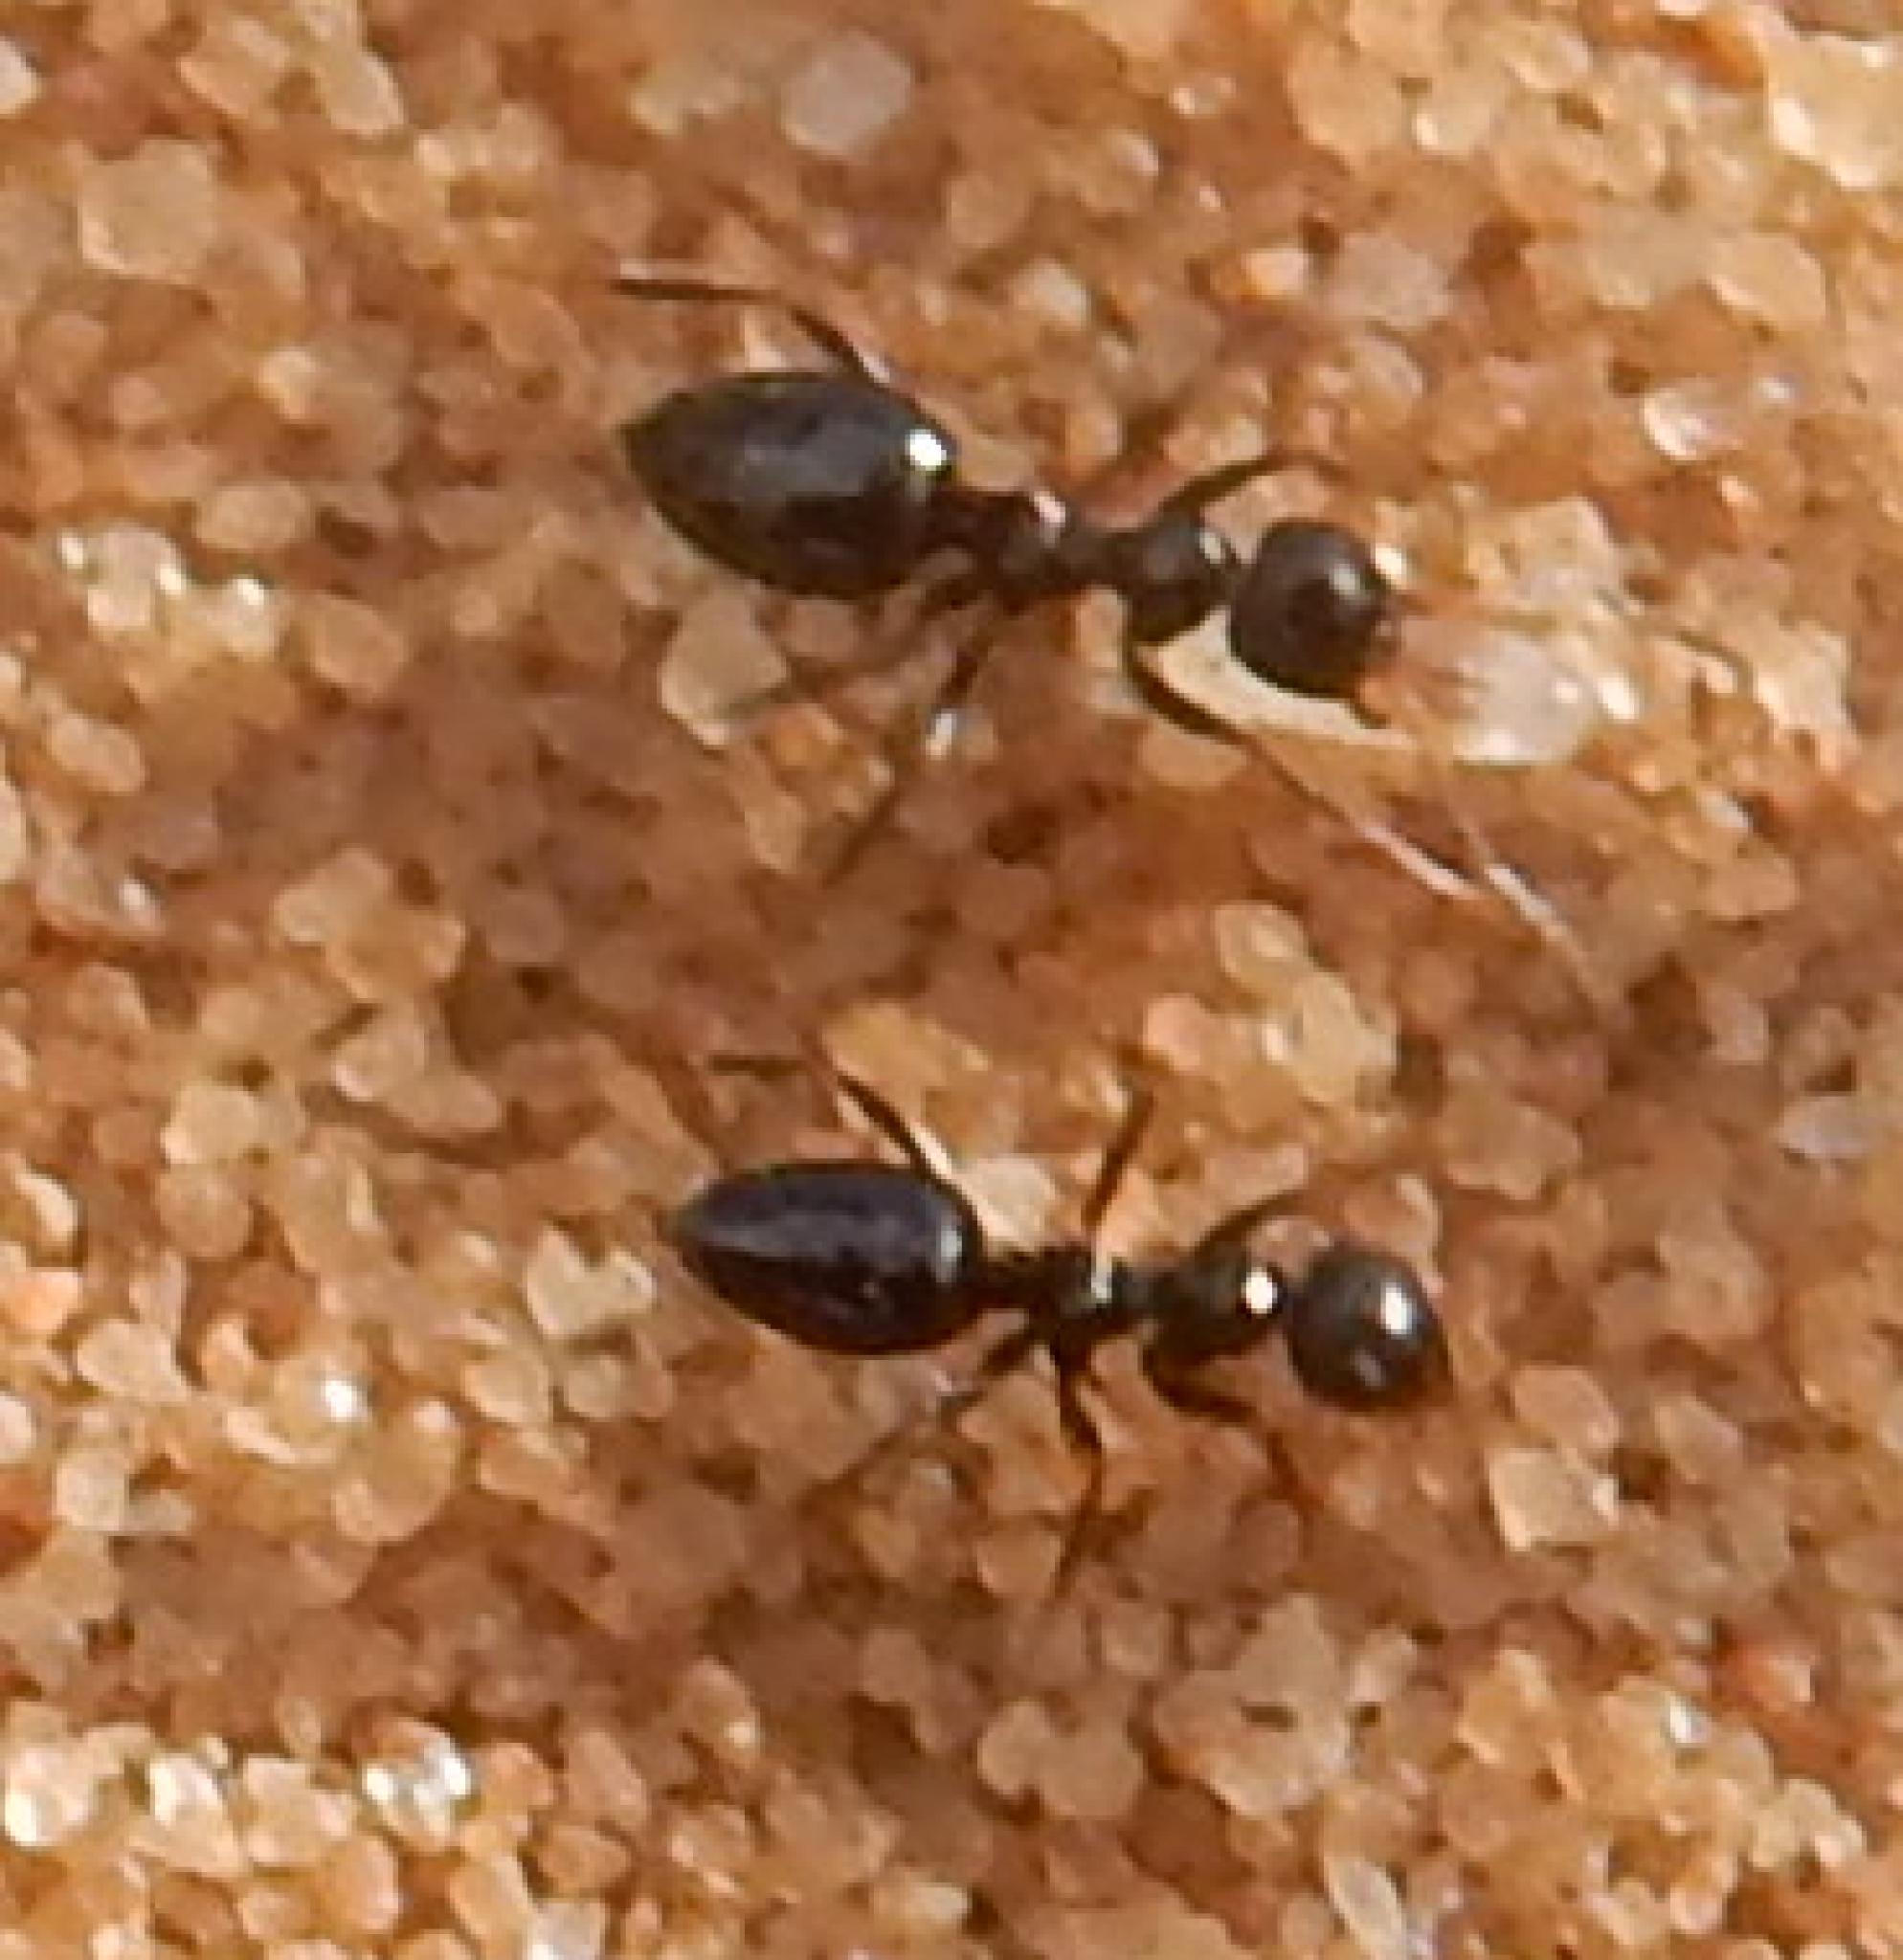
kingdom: Animalia
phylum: Arthropoda
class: Insecta
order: Hymenoptera
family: Formicidae
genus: Lepisiota
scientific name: Lepisiota incisa
